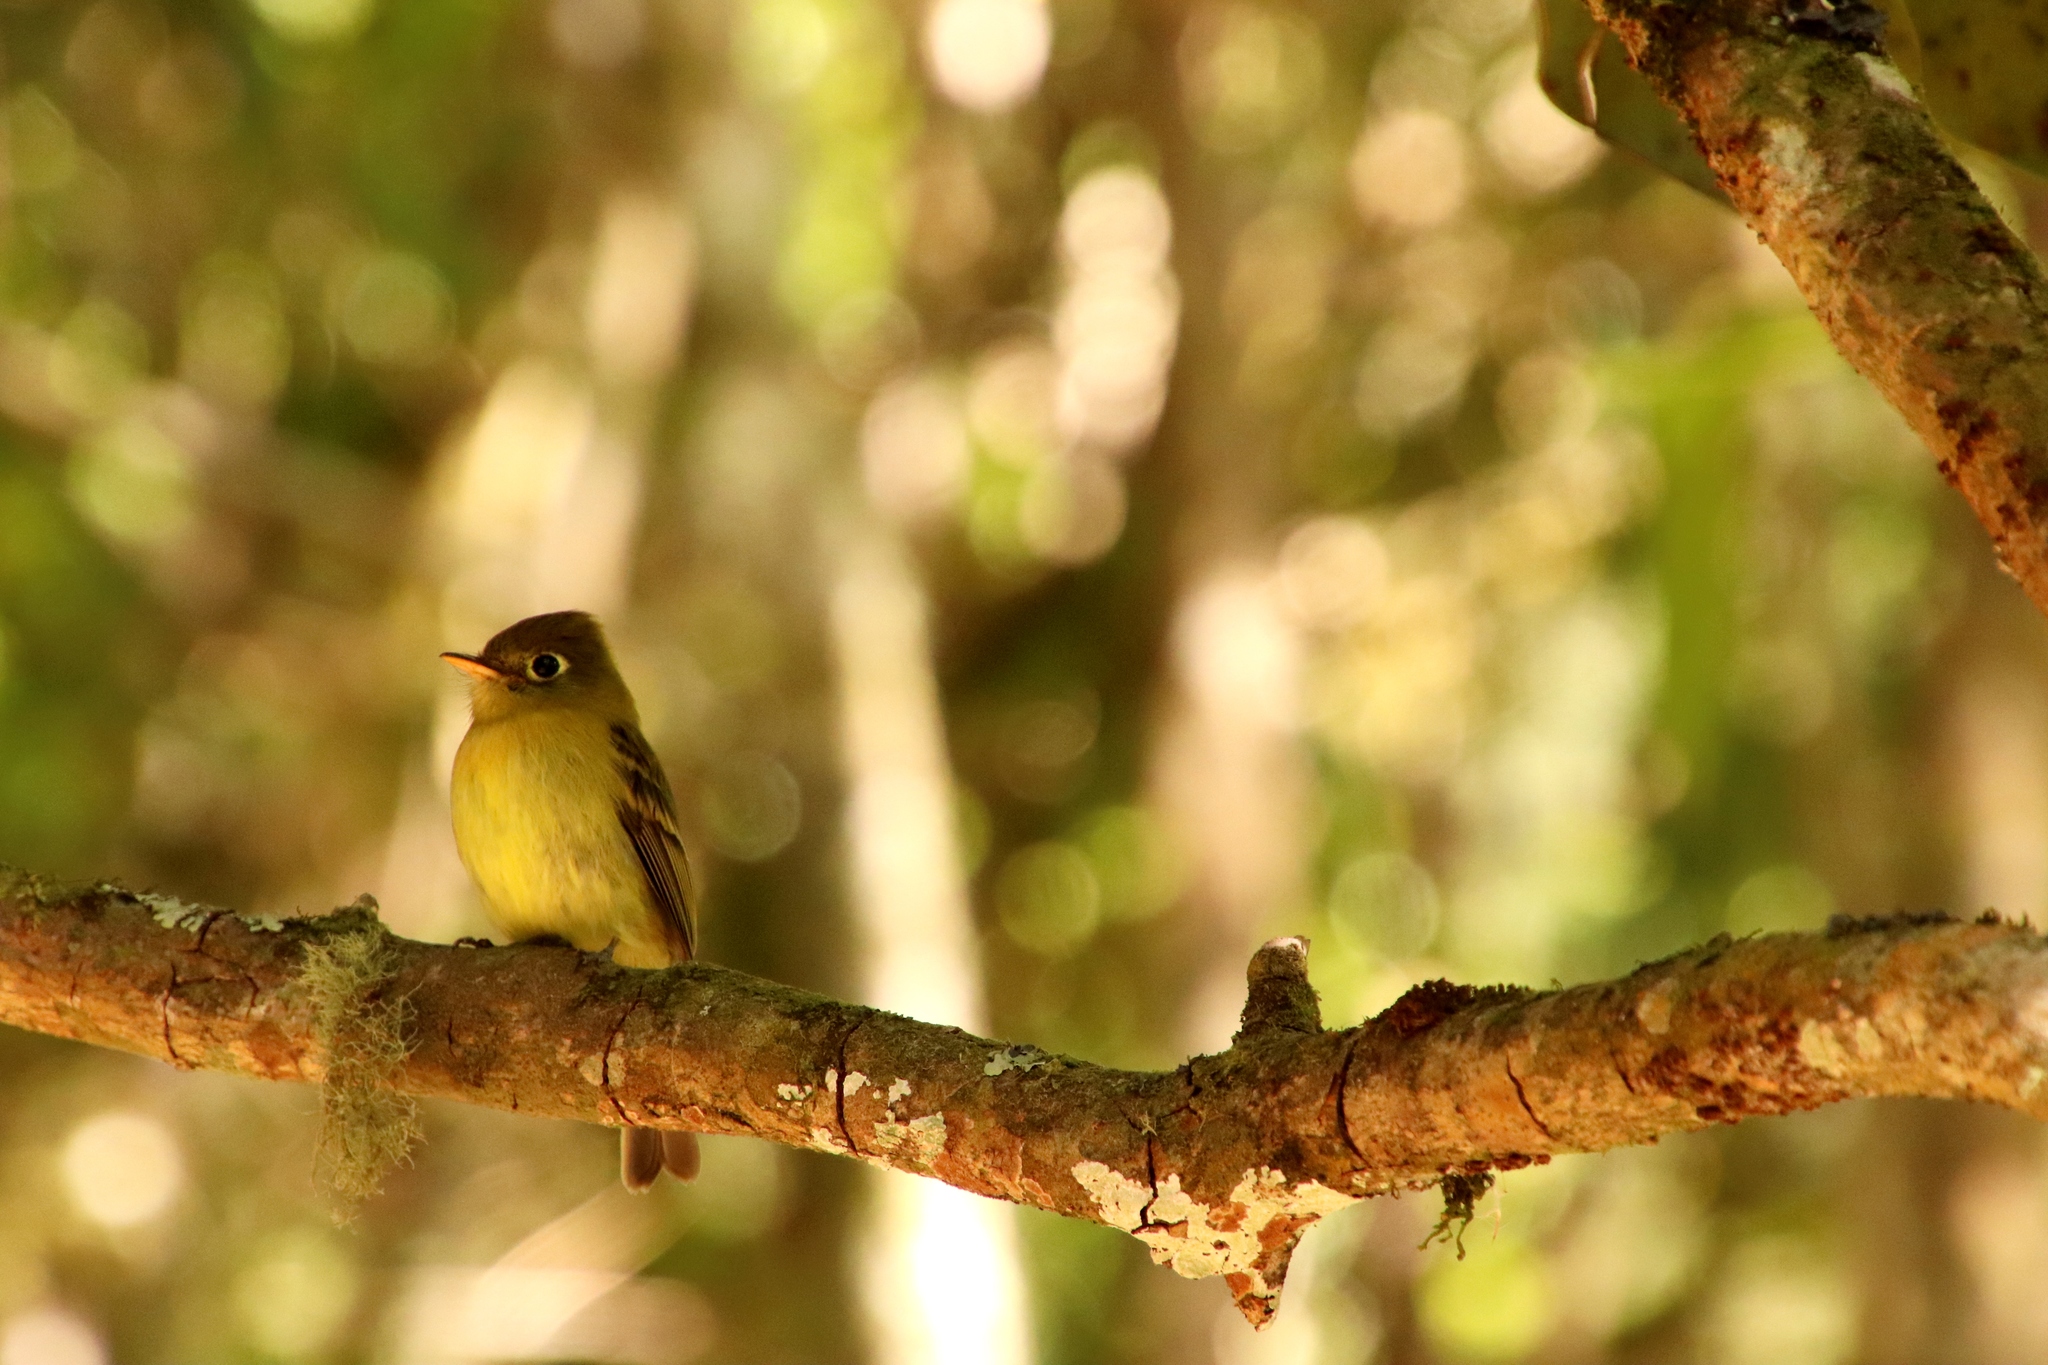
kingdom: Animalia
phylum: Chordata
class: Aves
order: Passeriformes
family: Tyrannidae
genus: Empidonax
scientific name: Empidonax flavescens
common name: Yellowish flycatcher
